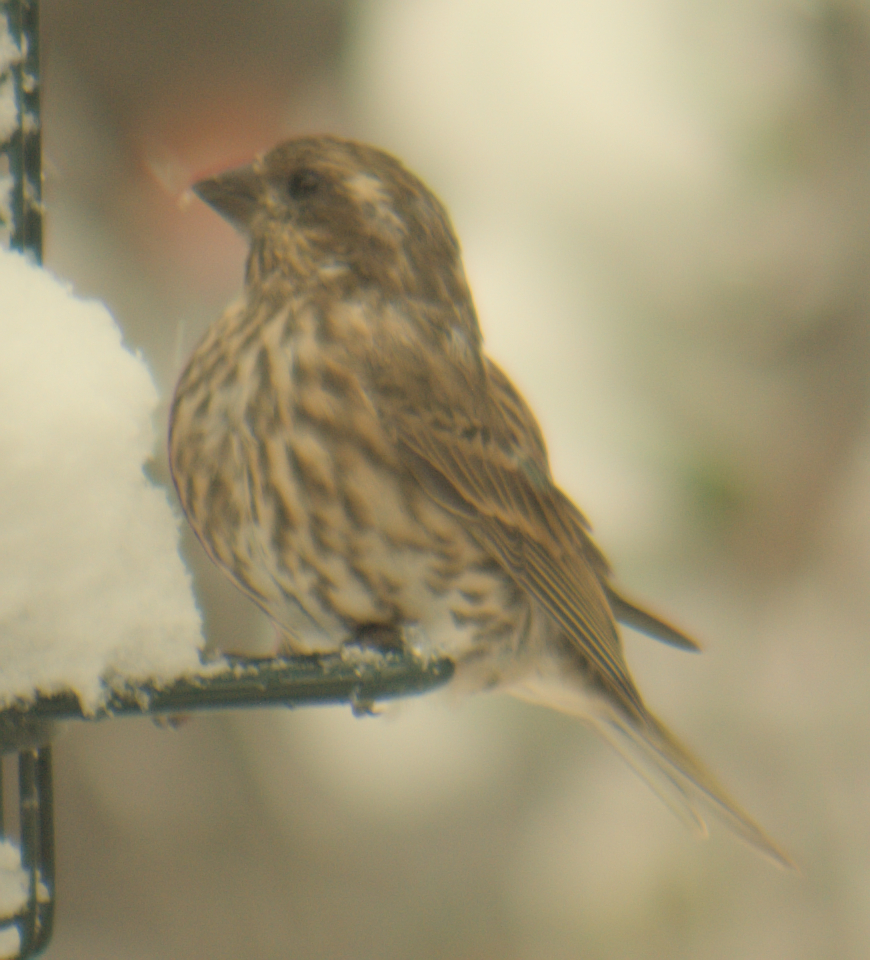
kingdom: Animalia
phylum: Chordata
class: Aves
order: Passeriformes
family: Fringillidae
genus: Haemorhous
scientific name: Haemorhous purpureus
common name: Purple finch
